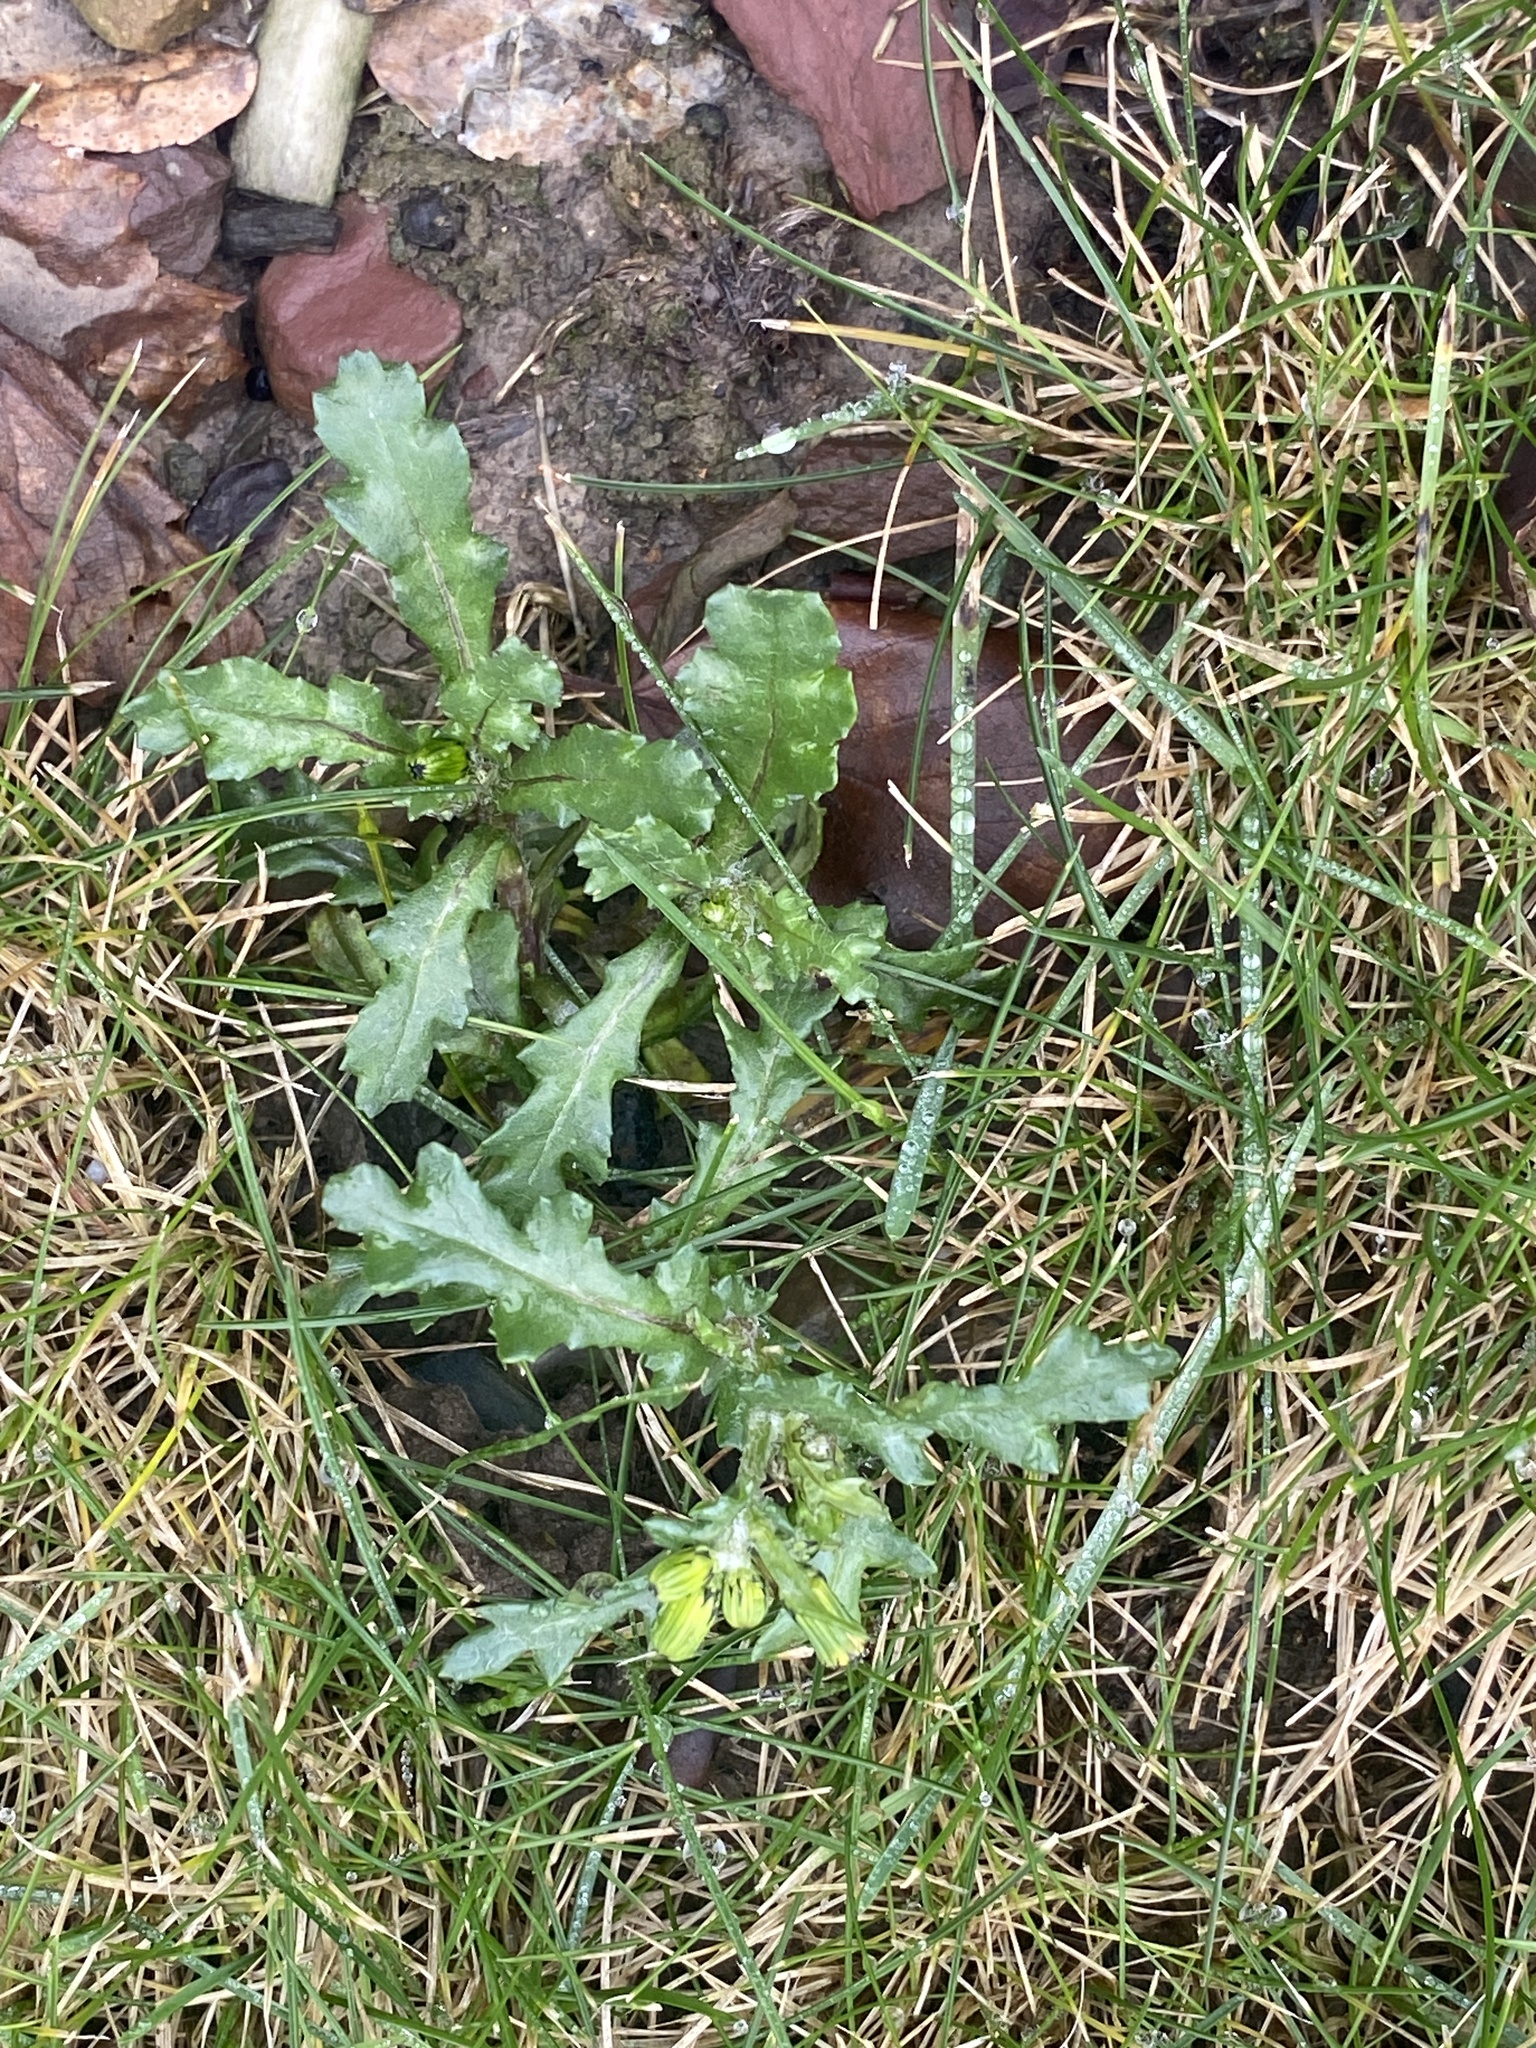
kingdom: Plantae
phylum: Tracheophyta
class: Magnoliopsida
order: Asterales
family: Asteraceae
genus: Senecio
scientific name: Senecio vulgaris
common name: Old-man-in-the-spring
